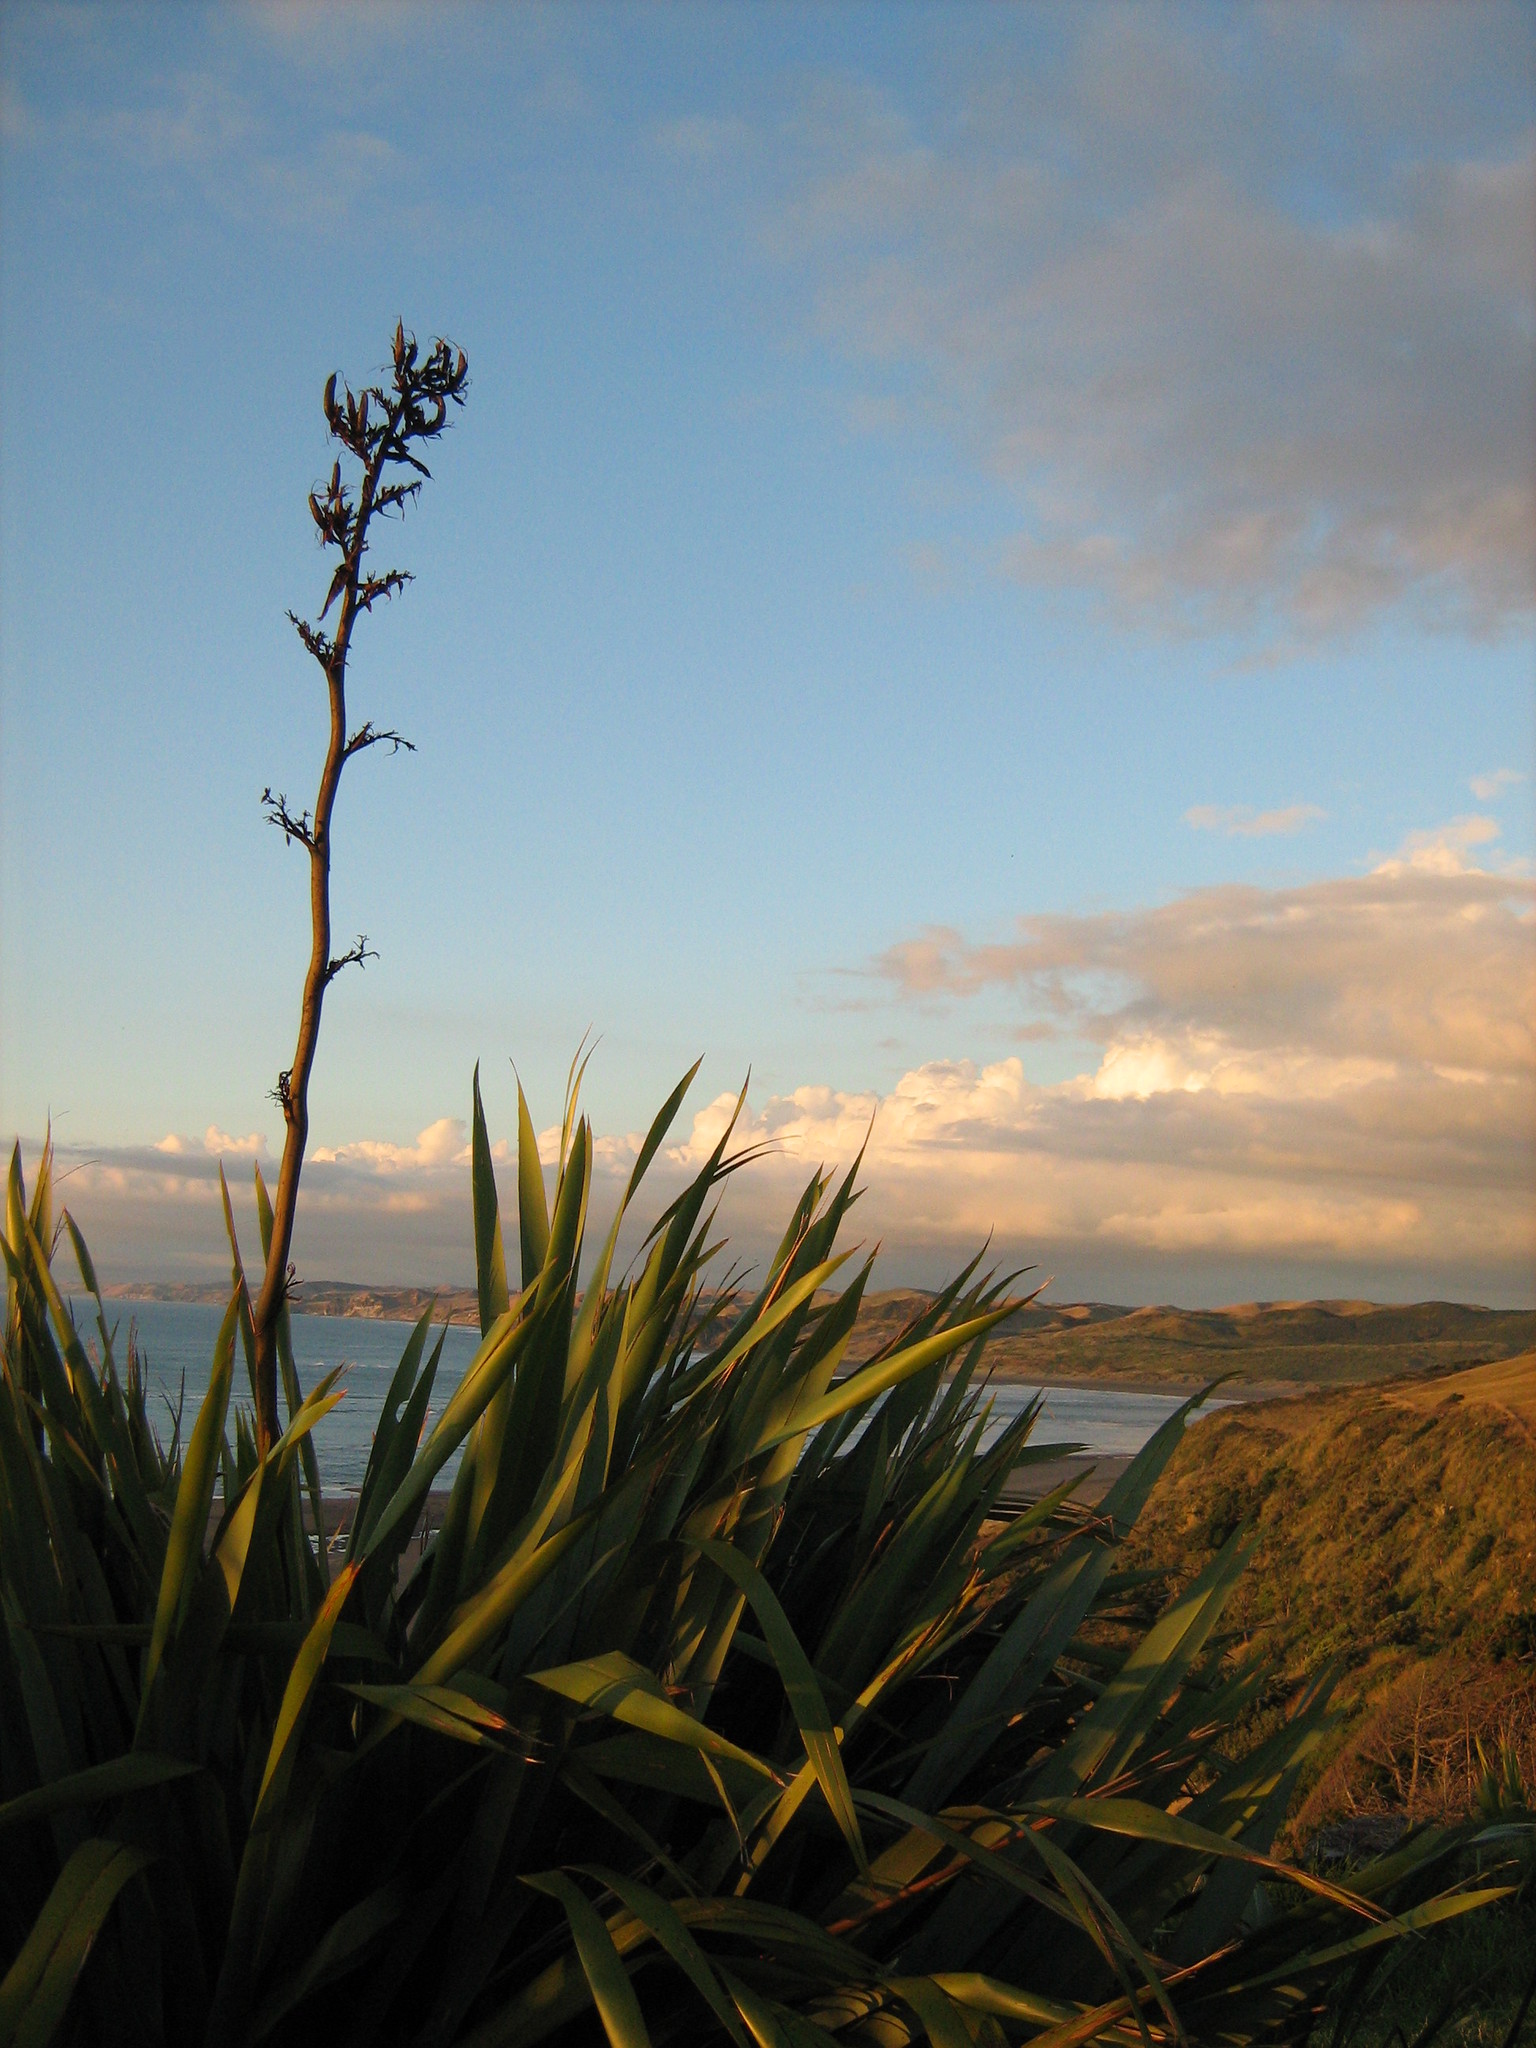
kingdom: Plantae
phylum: Tracheophyta
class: Liliopsida
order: Asparagales
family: Asphodelaceae
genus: Phormium
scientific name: Phormium tenax
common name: New zealand flax
